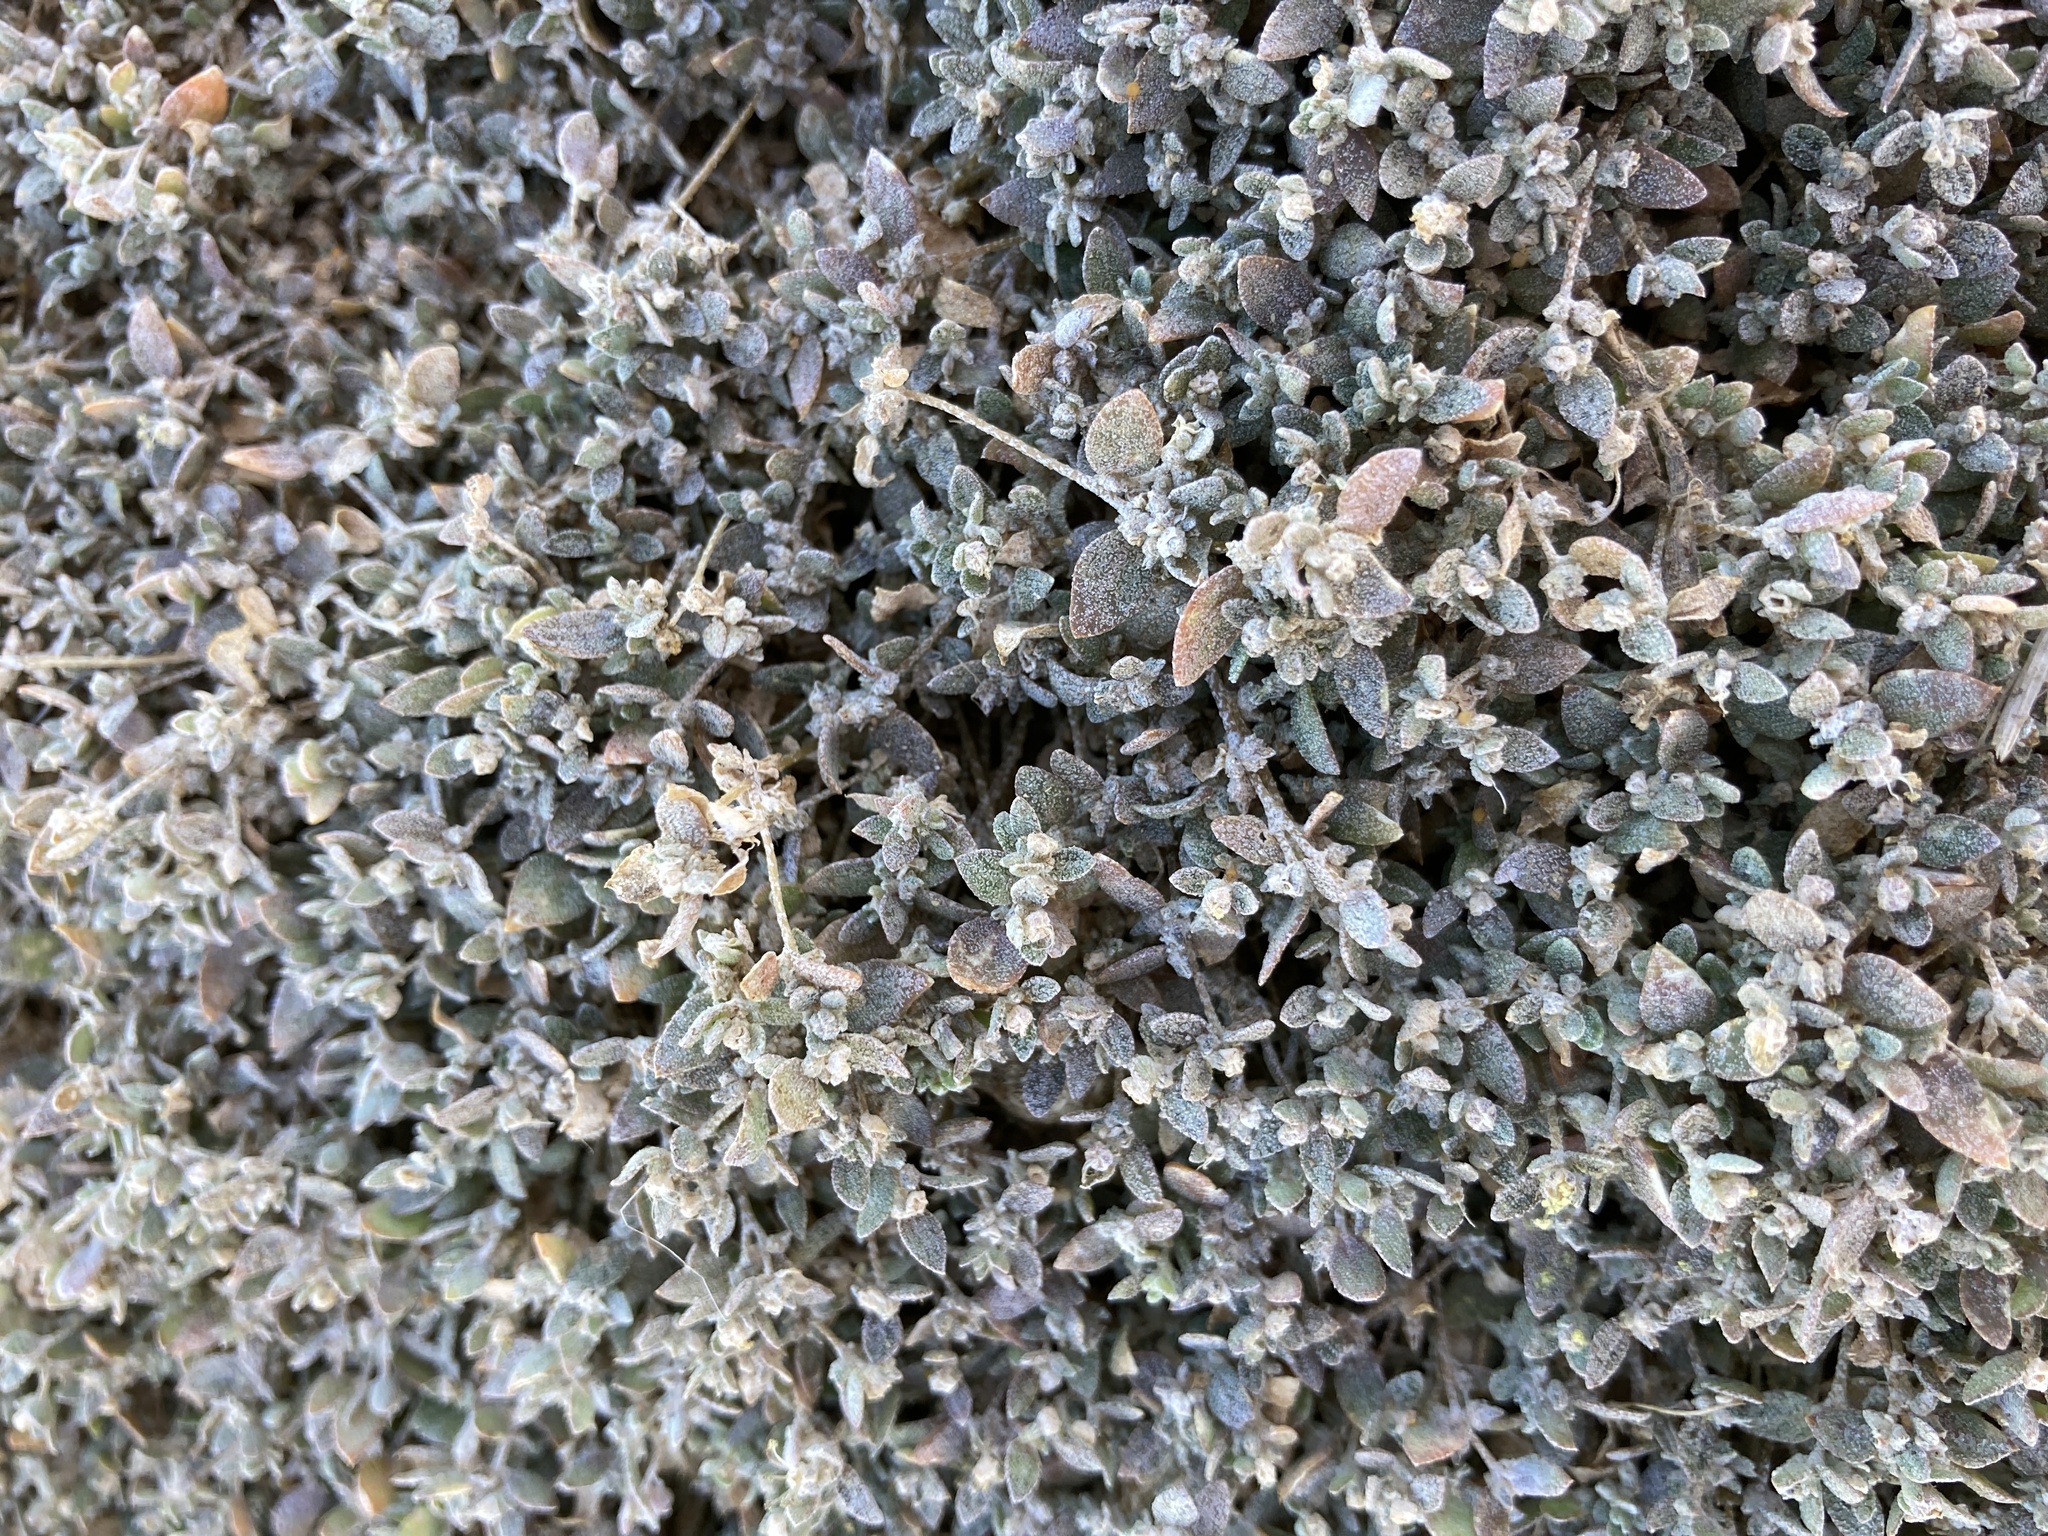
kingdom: Plantae
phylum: Tracheophyta
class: Magnoliopsida
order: Caryophyllales
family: Amaranthaceae
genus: Atriplex
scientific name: Atriplex buchananii
